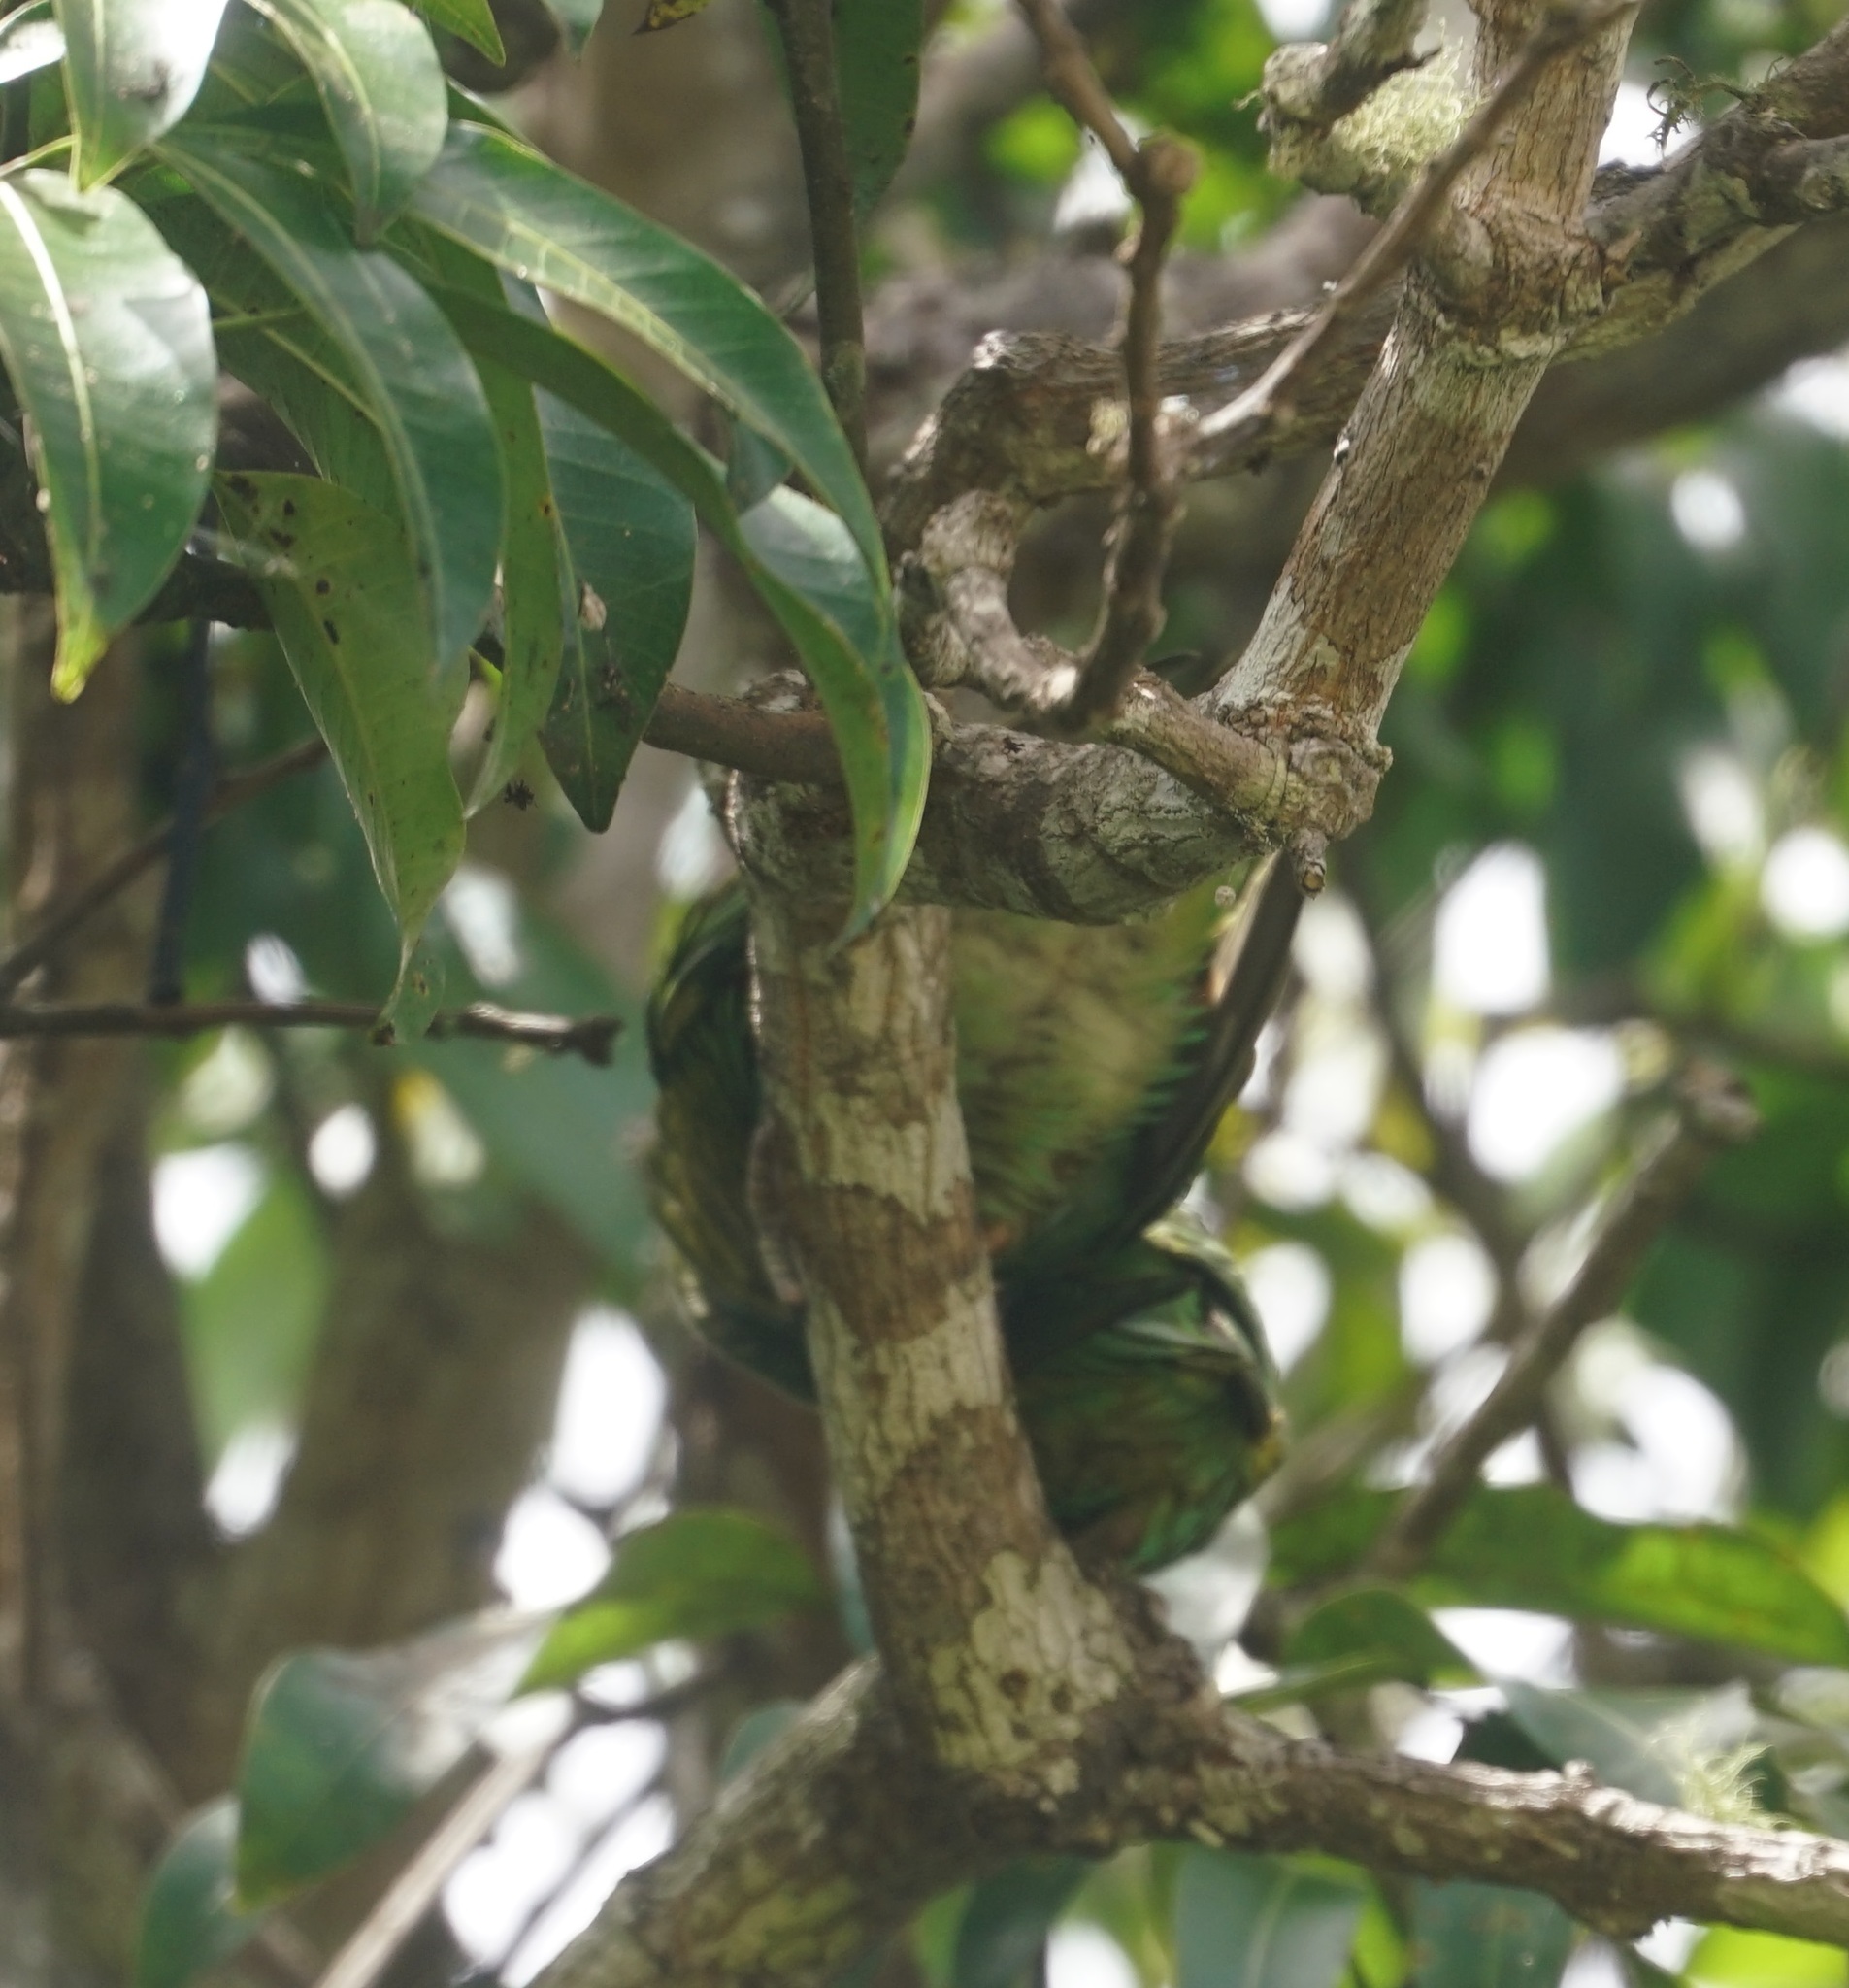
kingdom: Animalia
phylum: Chordata
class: Aves
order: Psittaciformes
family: Psittacidae
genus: Trichoglossus
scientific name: Trichoglossus chlorolepidotus
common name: Scaly-breasted lorikeet
